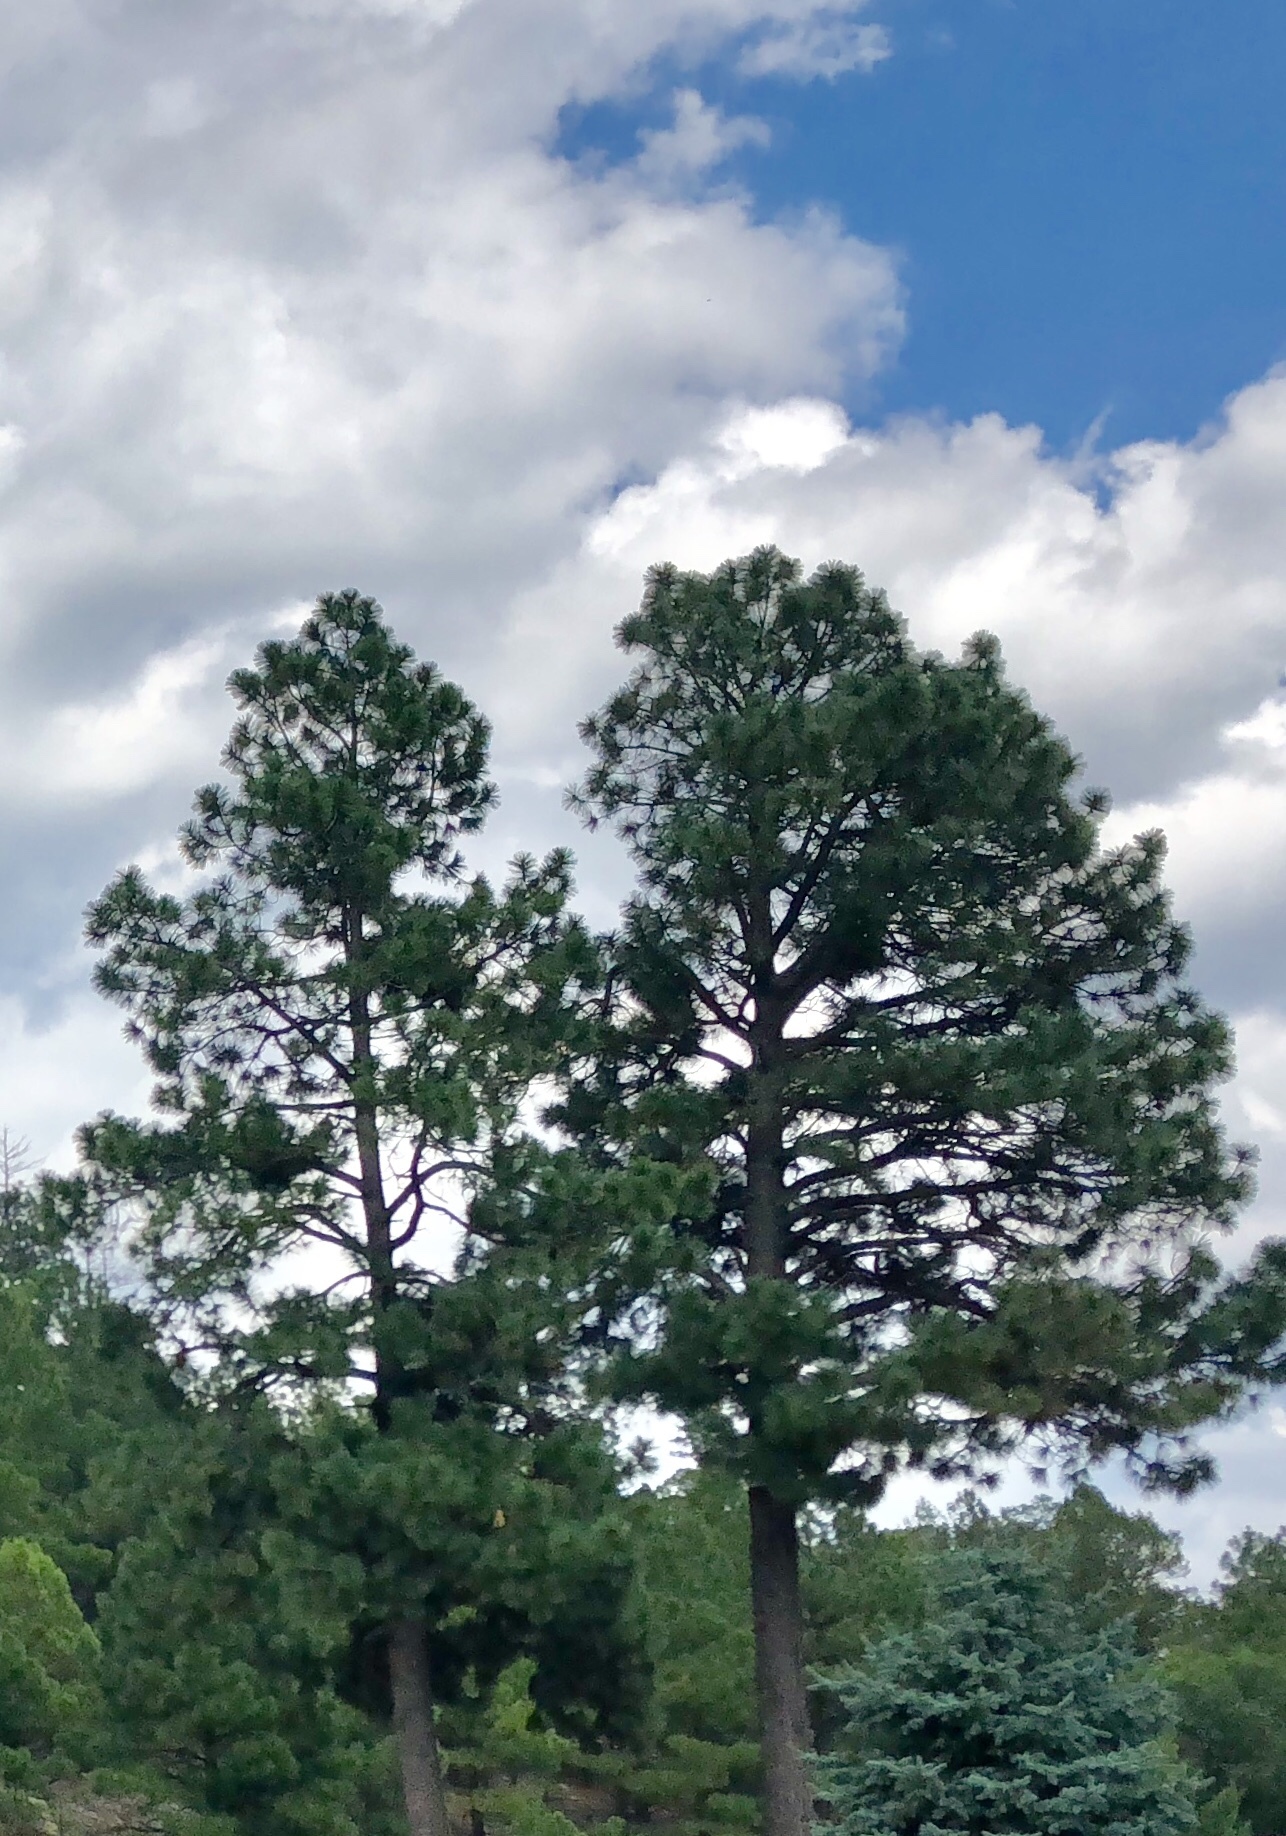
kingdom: Plantae
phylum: Tracheophyta
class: Pinopsida
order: Pinales
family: Pinaceae
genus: Pinus
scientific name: Pinus ponderosa
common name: Western yellow-pine
